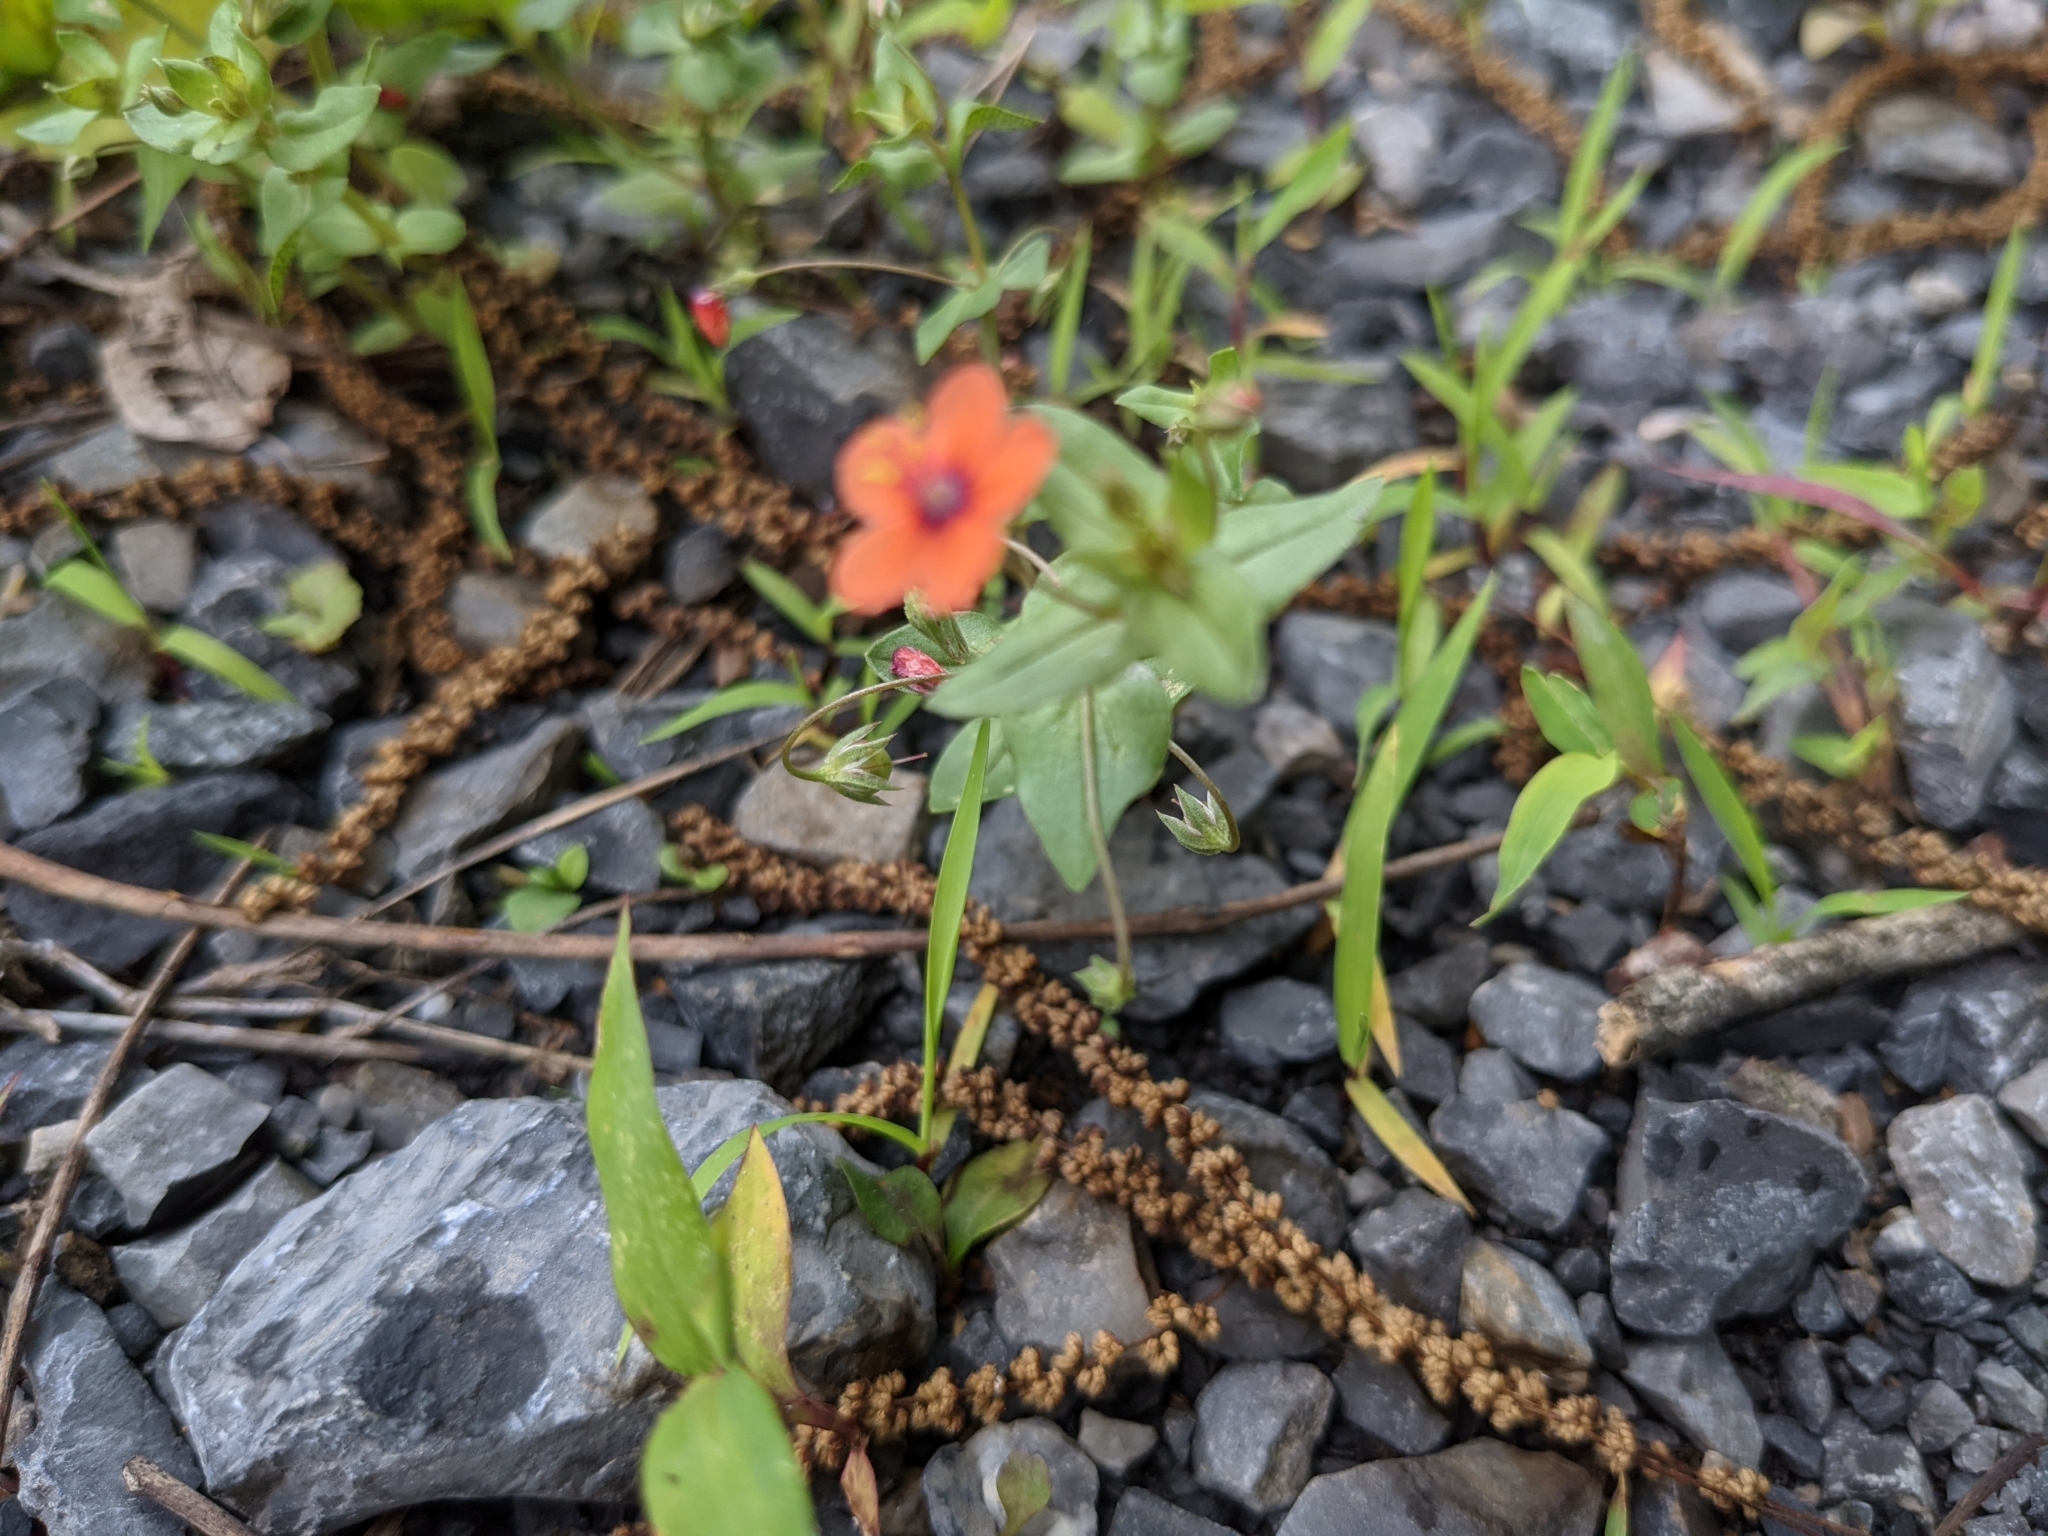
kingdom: Plantae
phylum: Tracheophyta
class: Magnoliopsida
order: Ericales
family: Primulaceae
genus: Lysimachia
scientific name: Lysimachia arvensis
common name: Scarlet pimpernel
